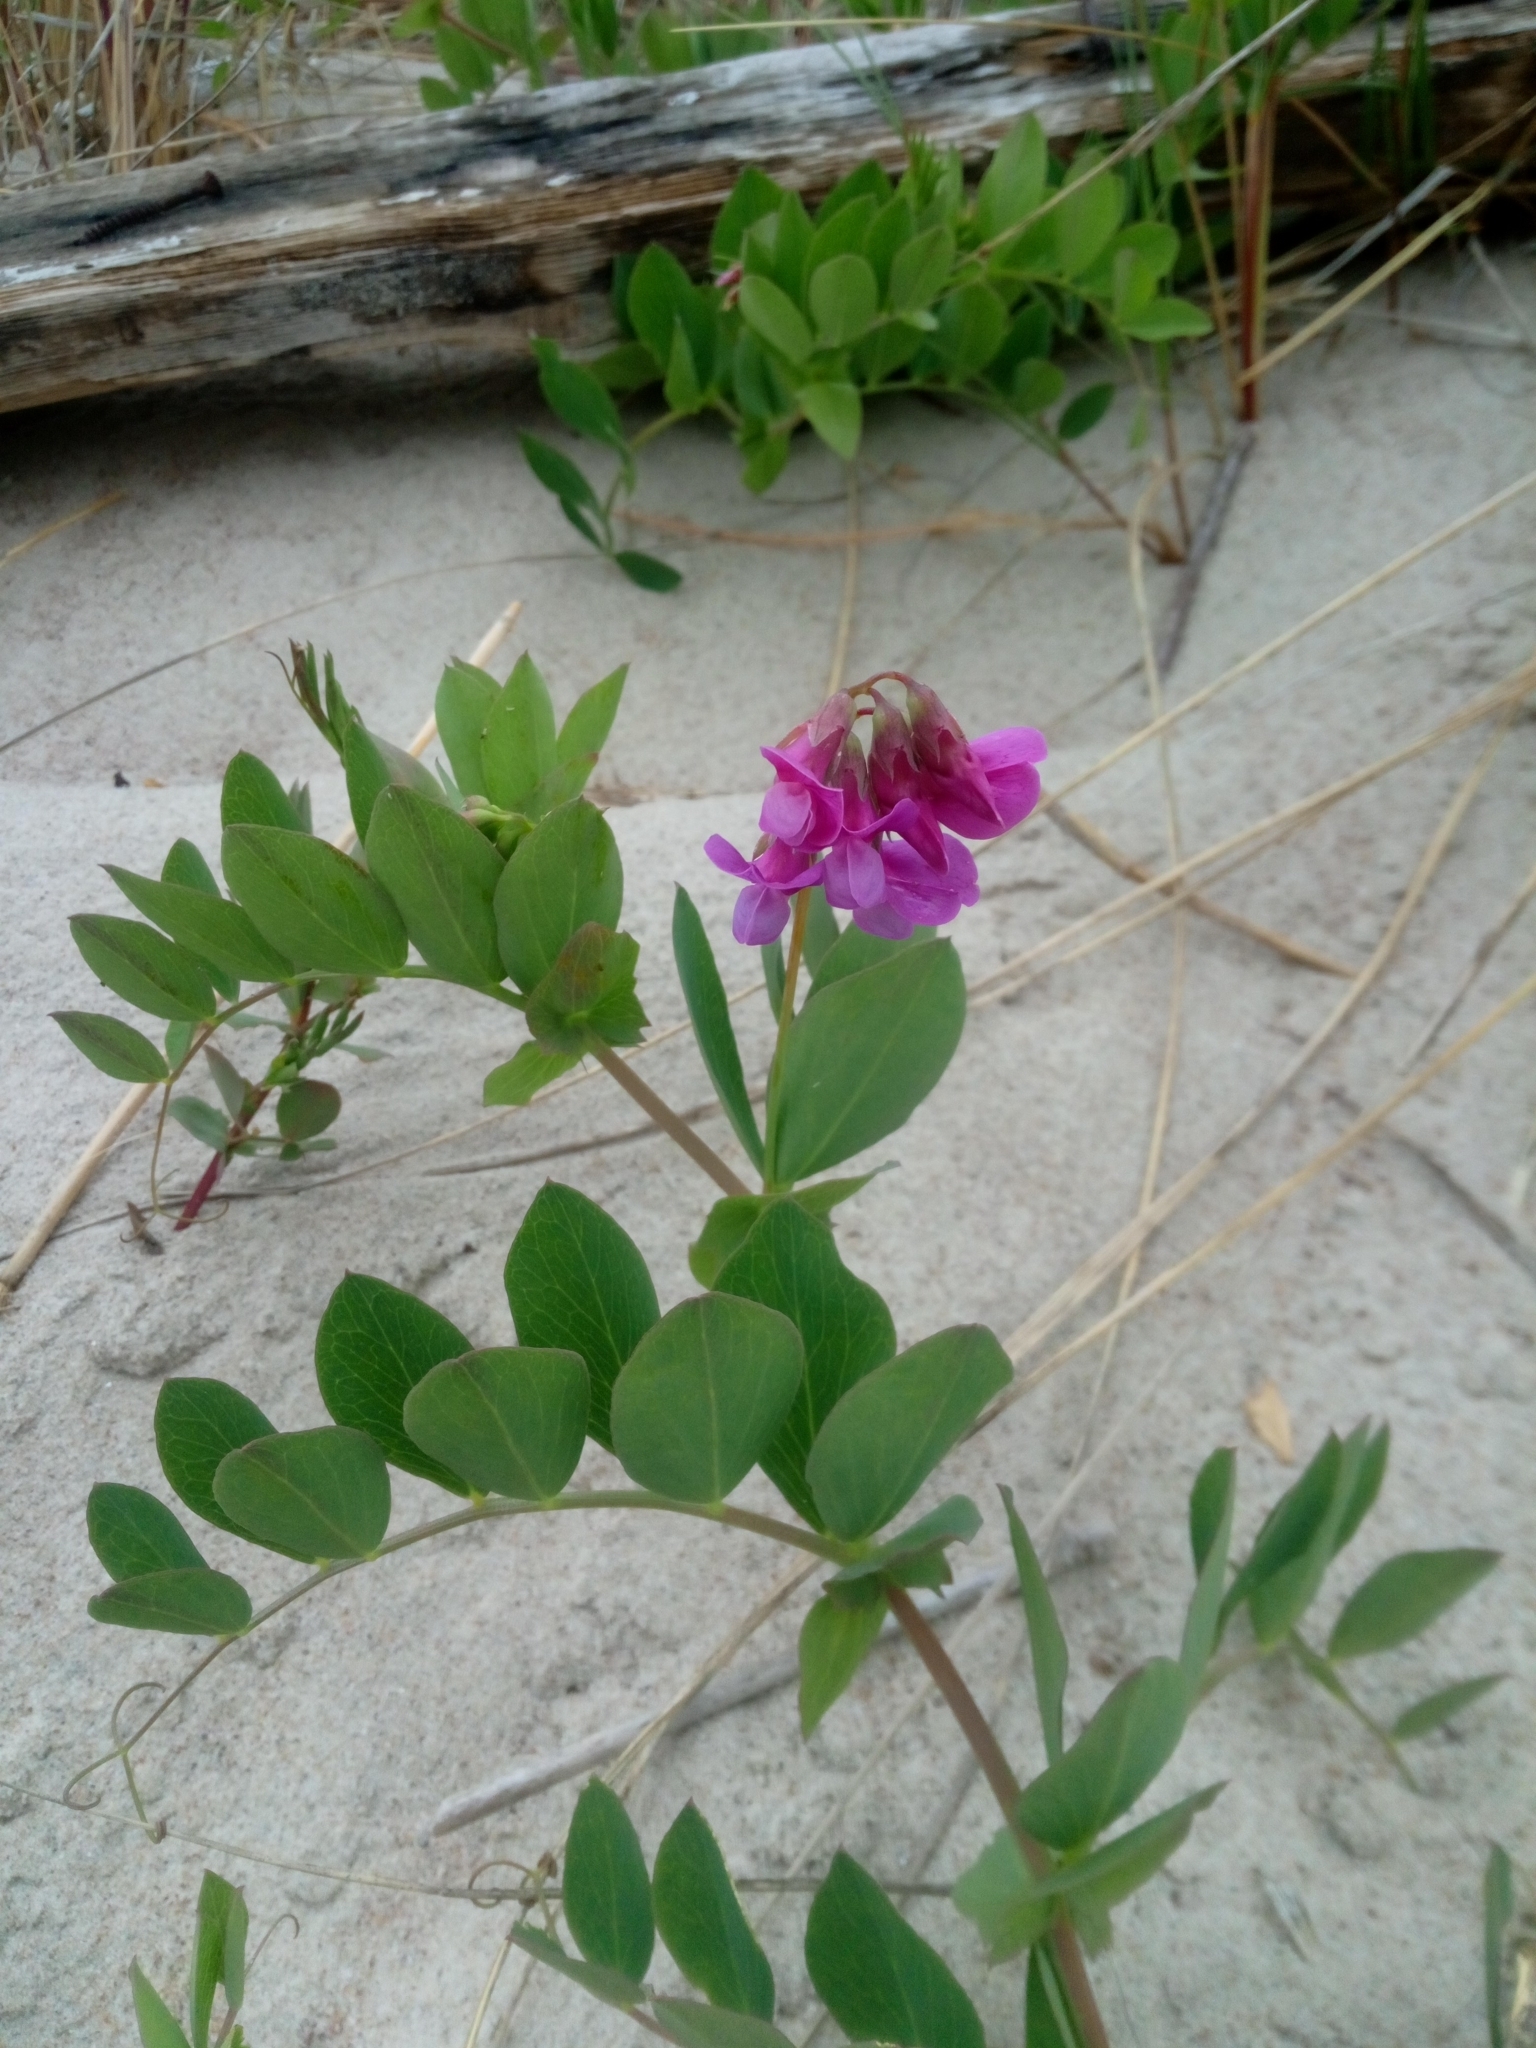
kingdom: Plantae
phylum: Tracheophyta
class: Magnoliopsida
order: Fabales
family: Fabaceae
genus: Lathyrus
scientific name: Lathyrus japonicus
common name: Sea pea
